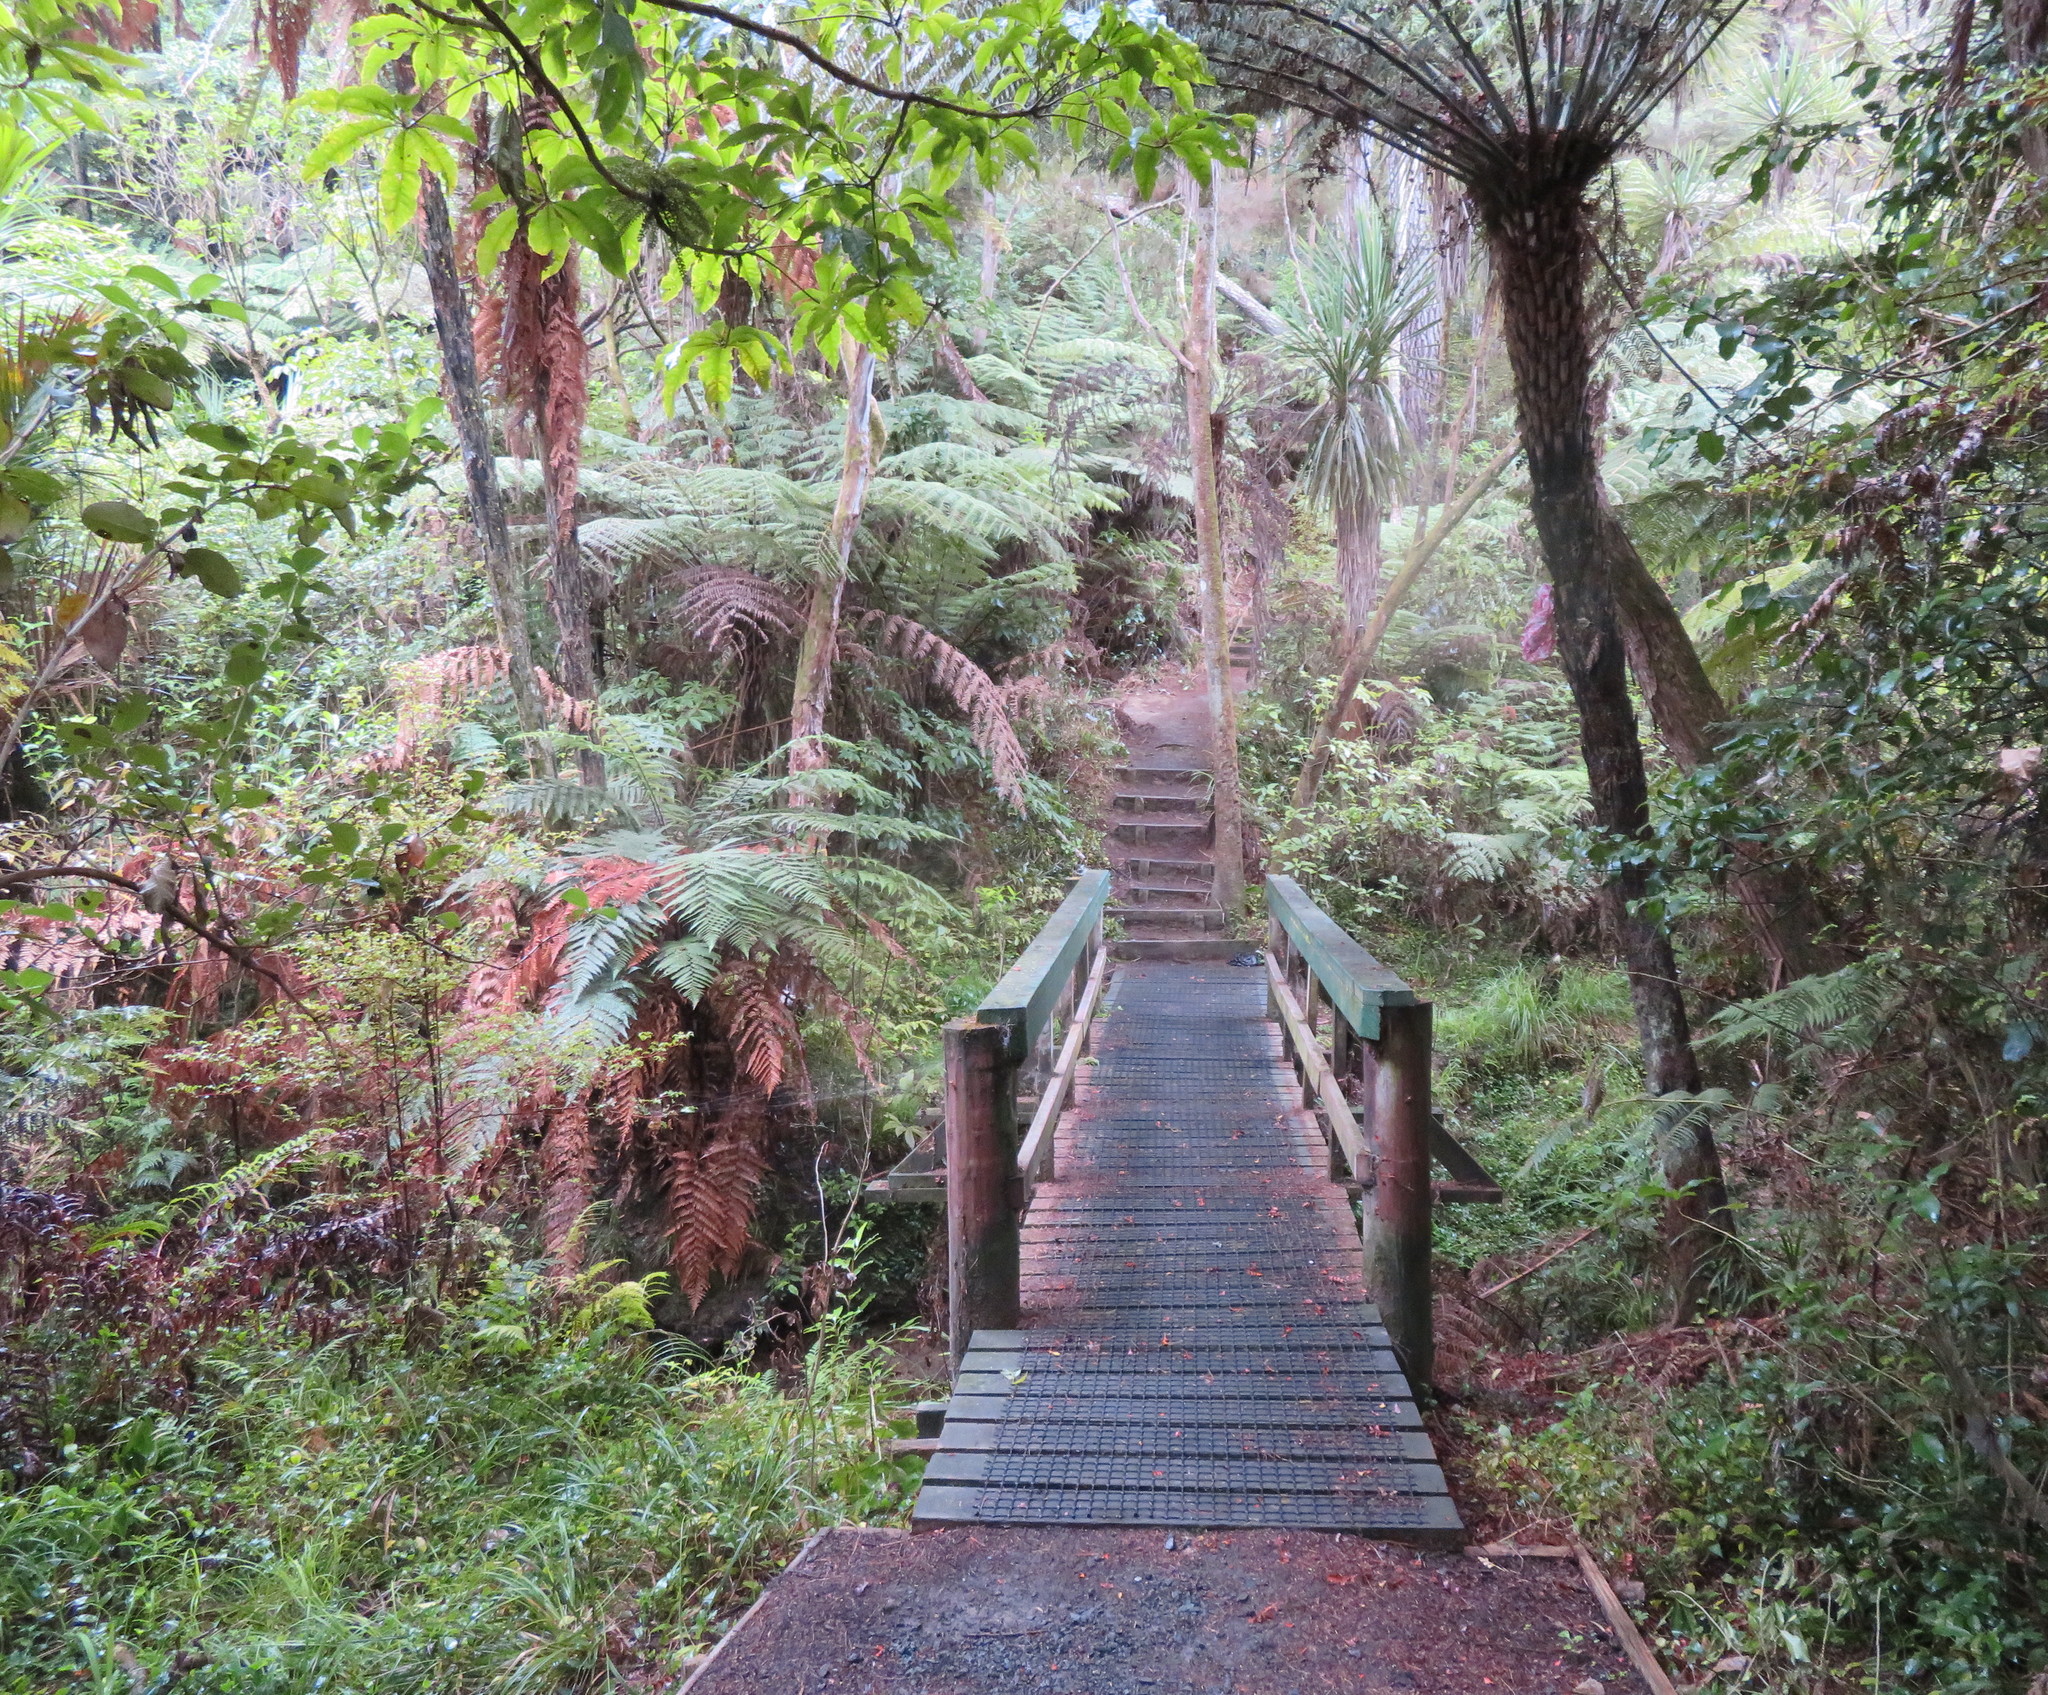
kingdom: Plantae
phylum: Tracheophyta
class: Liliopsida
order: Commelinales
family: Commelinaceae
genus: Tradescantia
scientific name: Tradescantia fluminensis
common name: Wandering-jew
